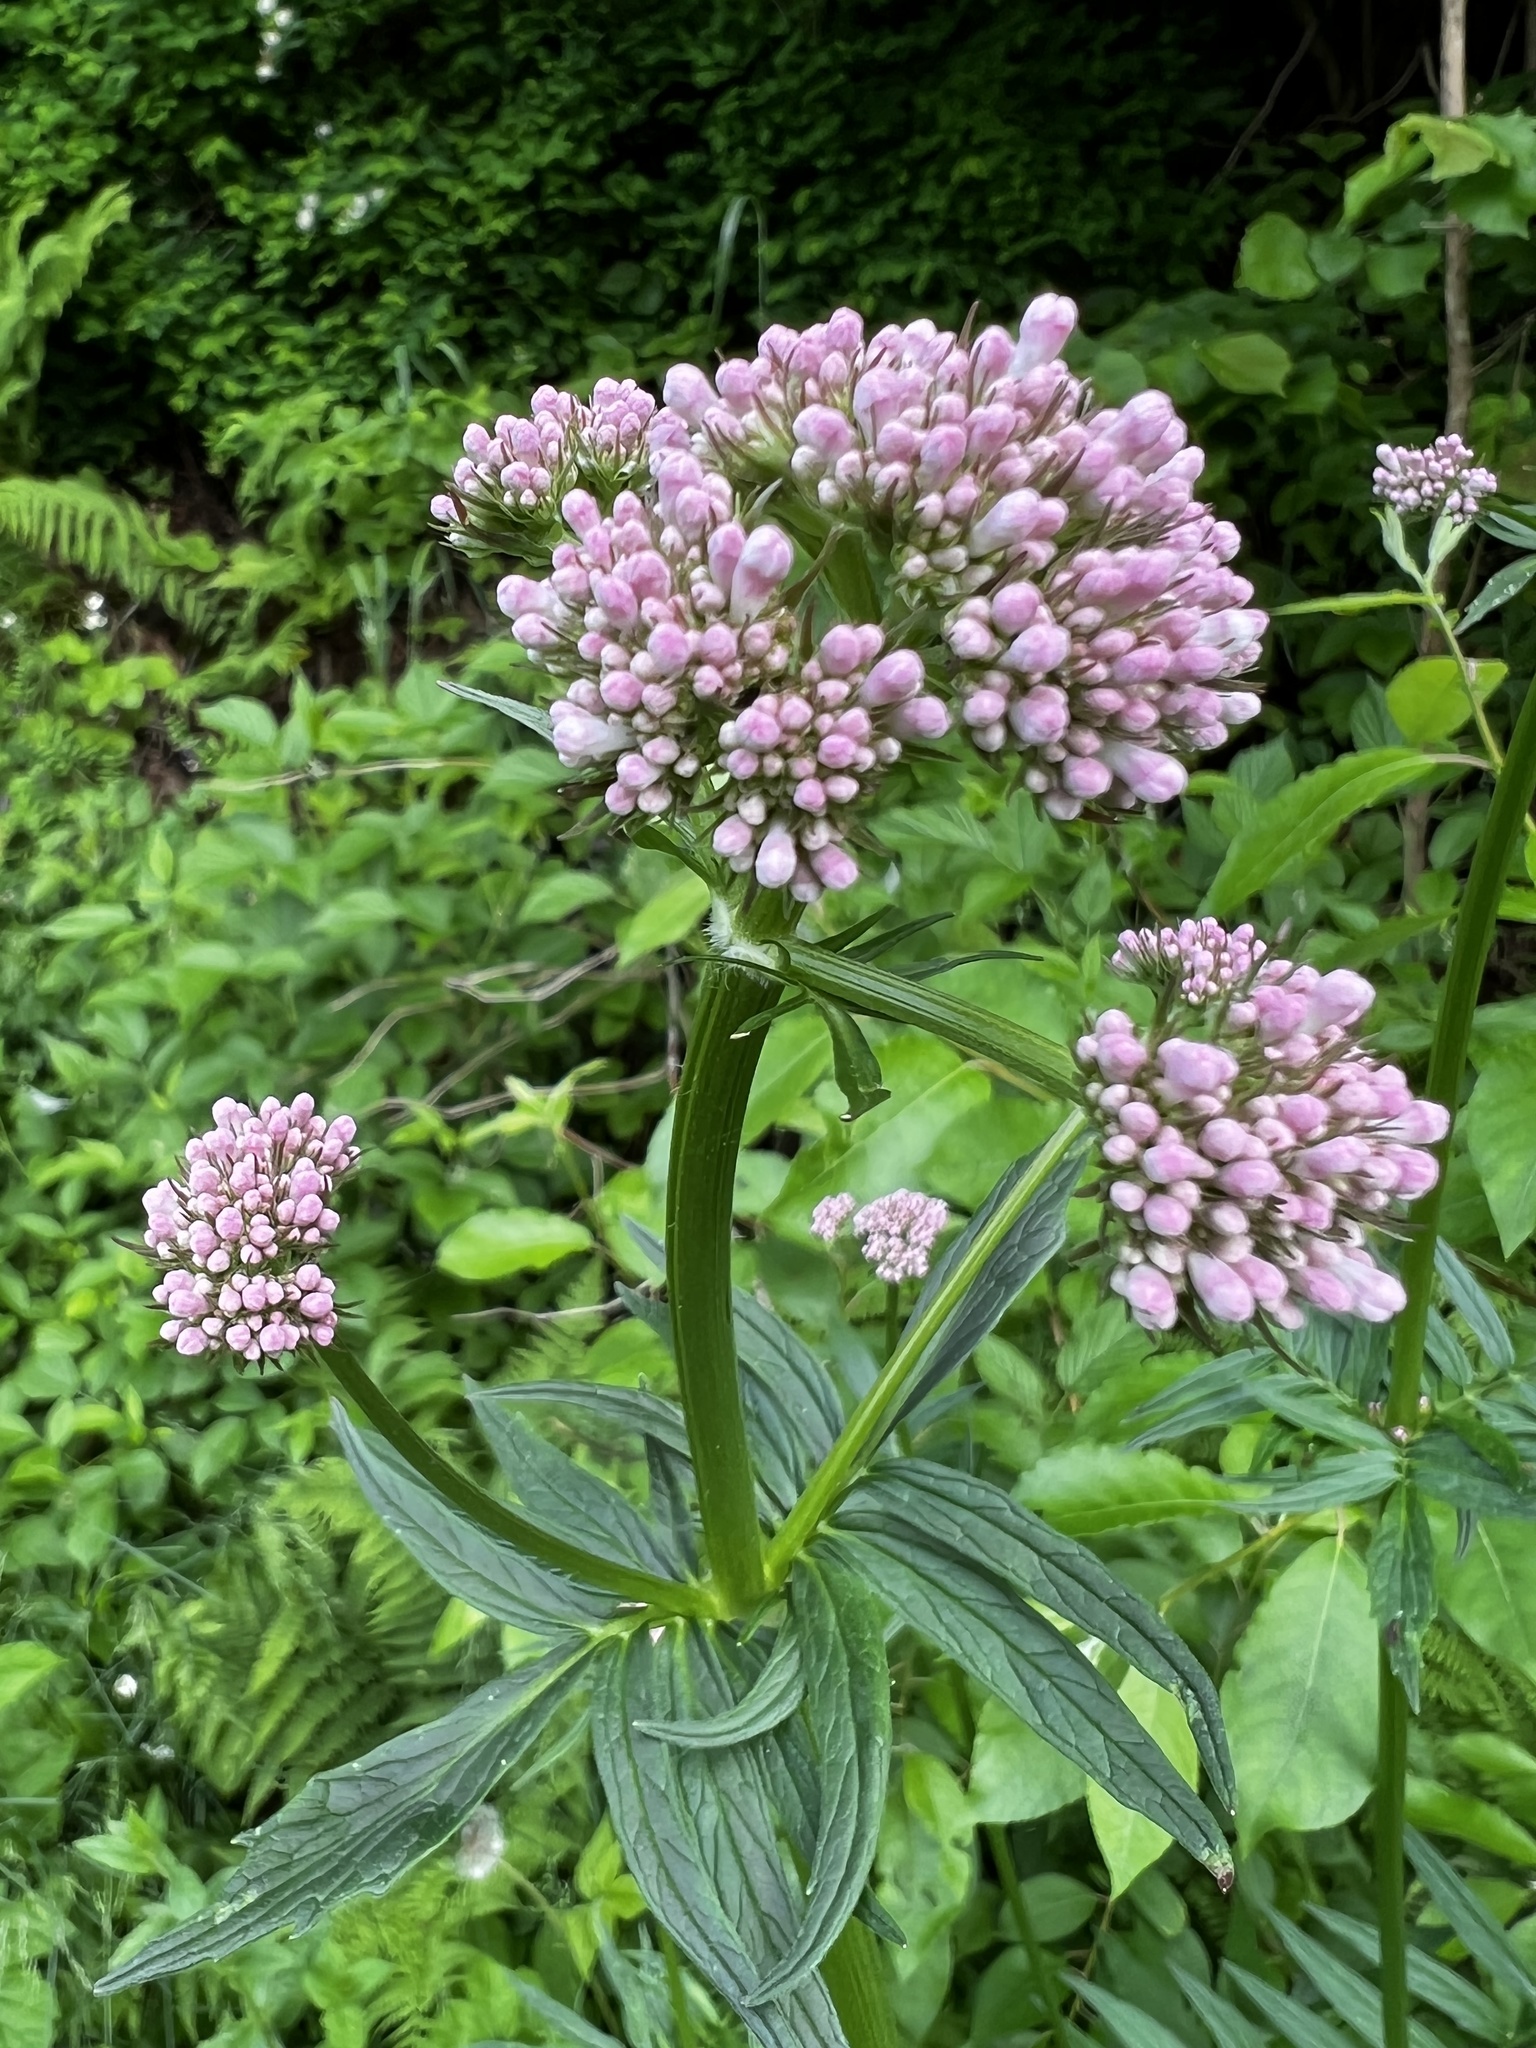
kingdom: Plantae
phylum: Tracheophyta
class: Magnoliopsida
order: Dipsacales
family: Caprifoliaceae
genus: Valeriana
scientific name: Valeriana sambucifolia
